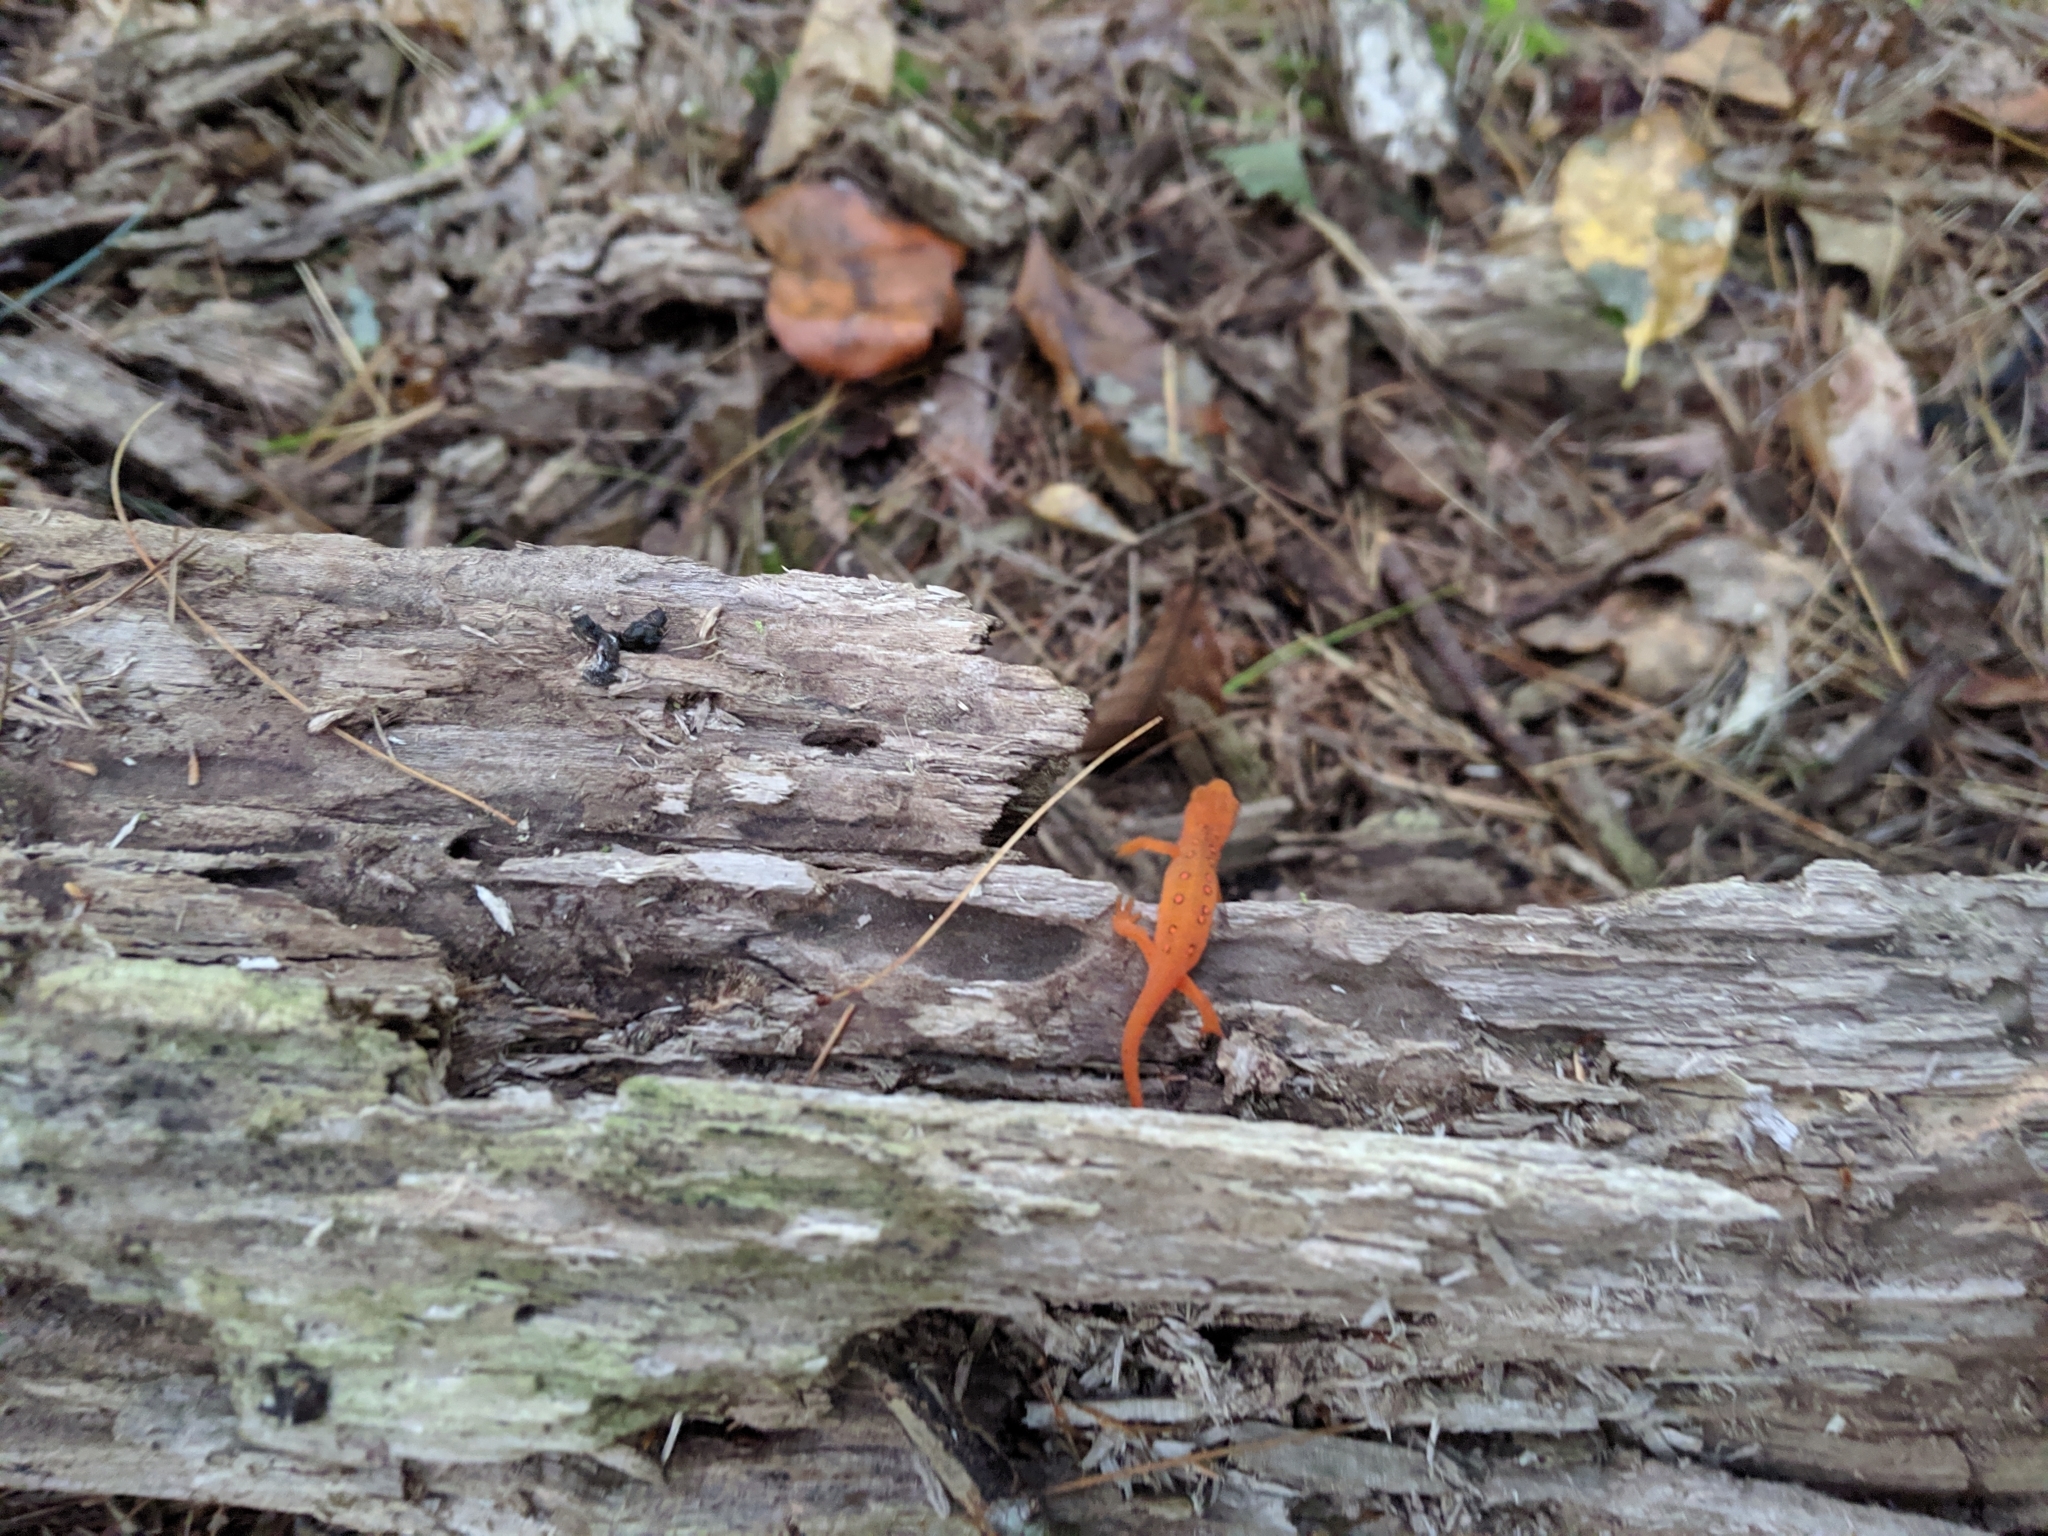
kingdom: Animalia
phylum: Chordata
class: Amphibia
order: Caudata
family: Salamandridae
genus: Notophthalmus
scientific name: Notophthalmus viridescens
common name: Eastern newt
